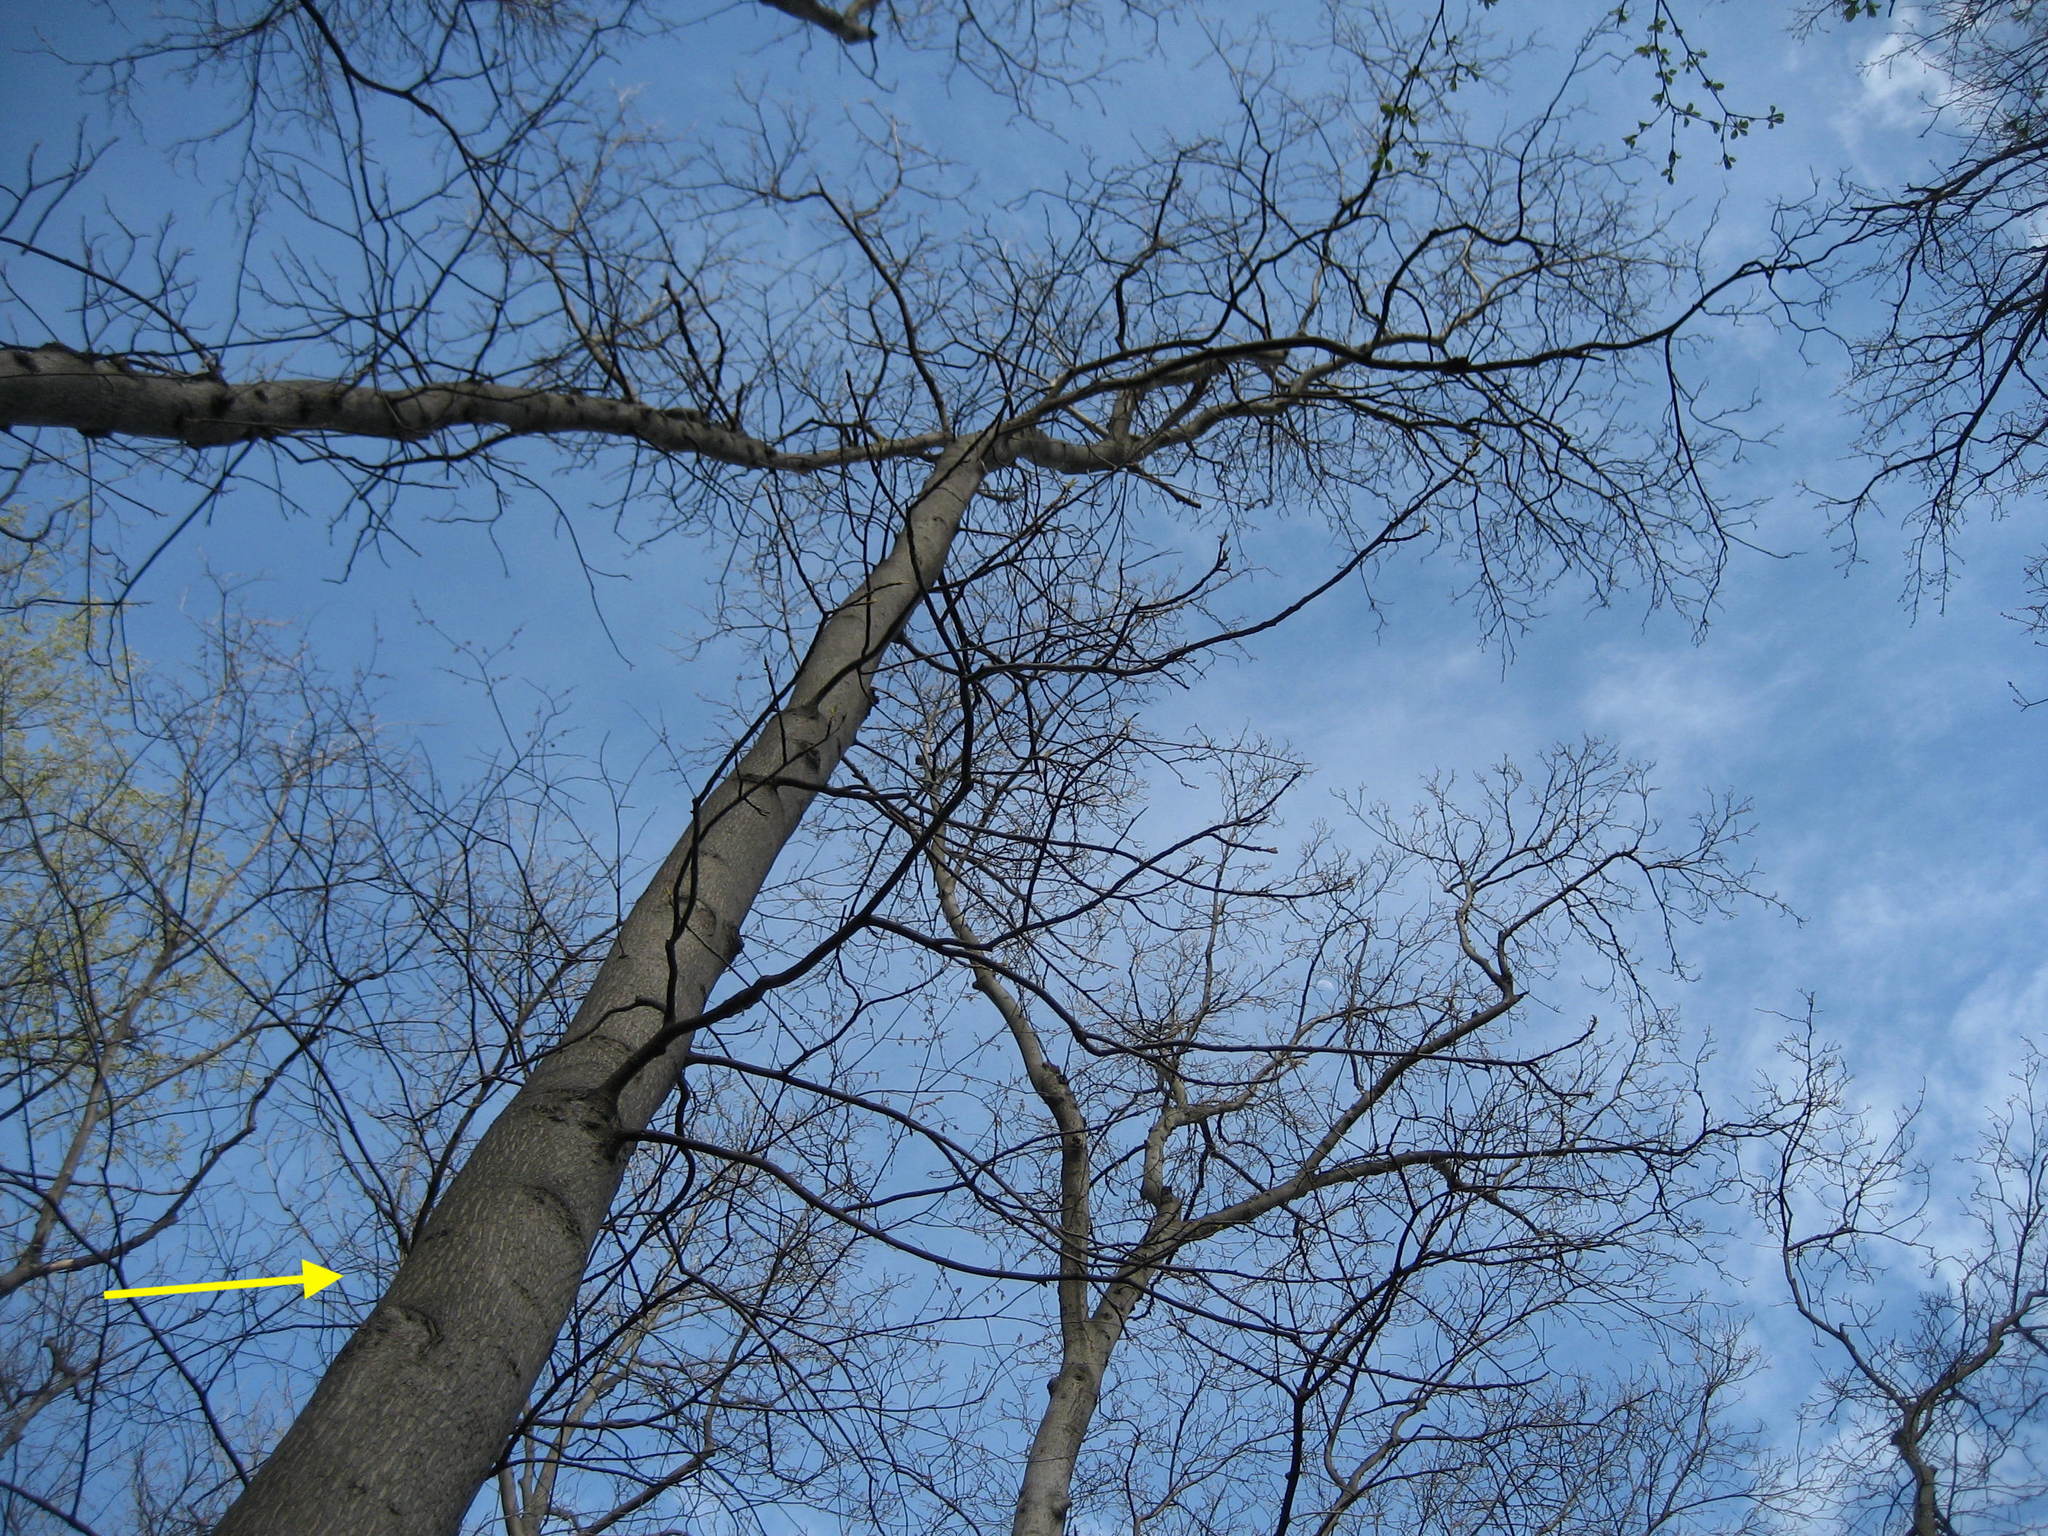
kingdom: Plantae
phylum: Tracheophyta
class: Magnoliopsida
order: Fagales
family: Juglandaceae
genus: Carya
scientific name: Carya cordiformis
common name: Bitternut hickory
